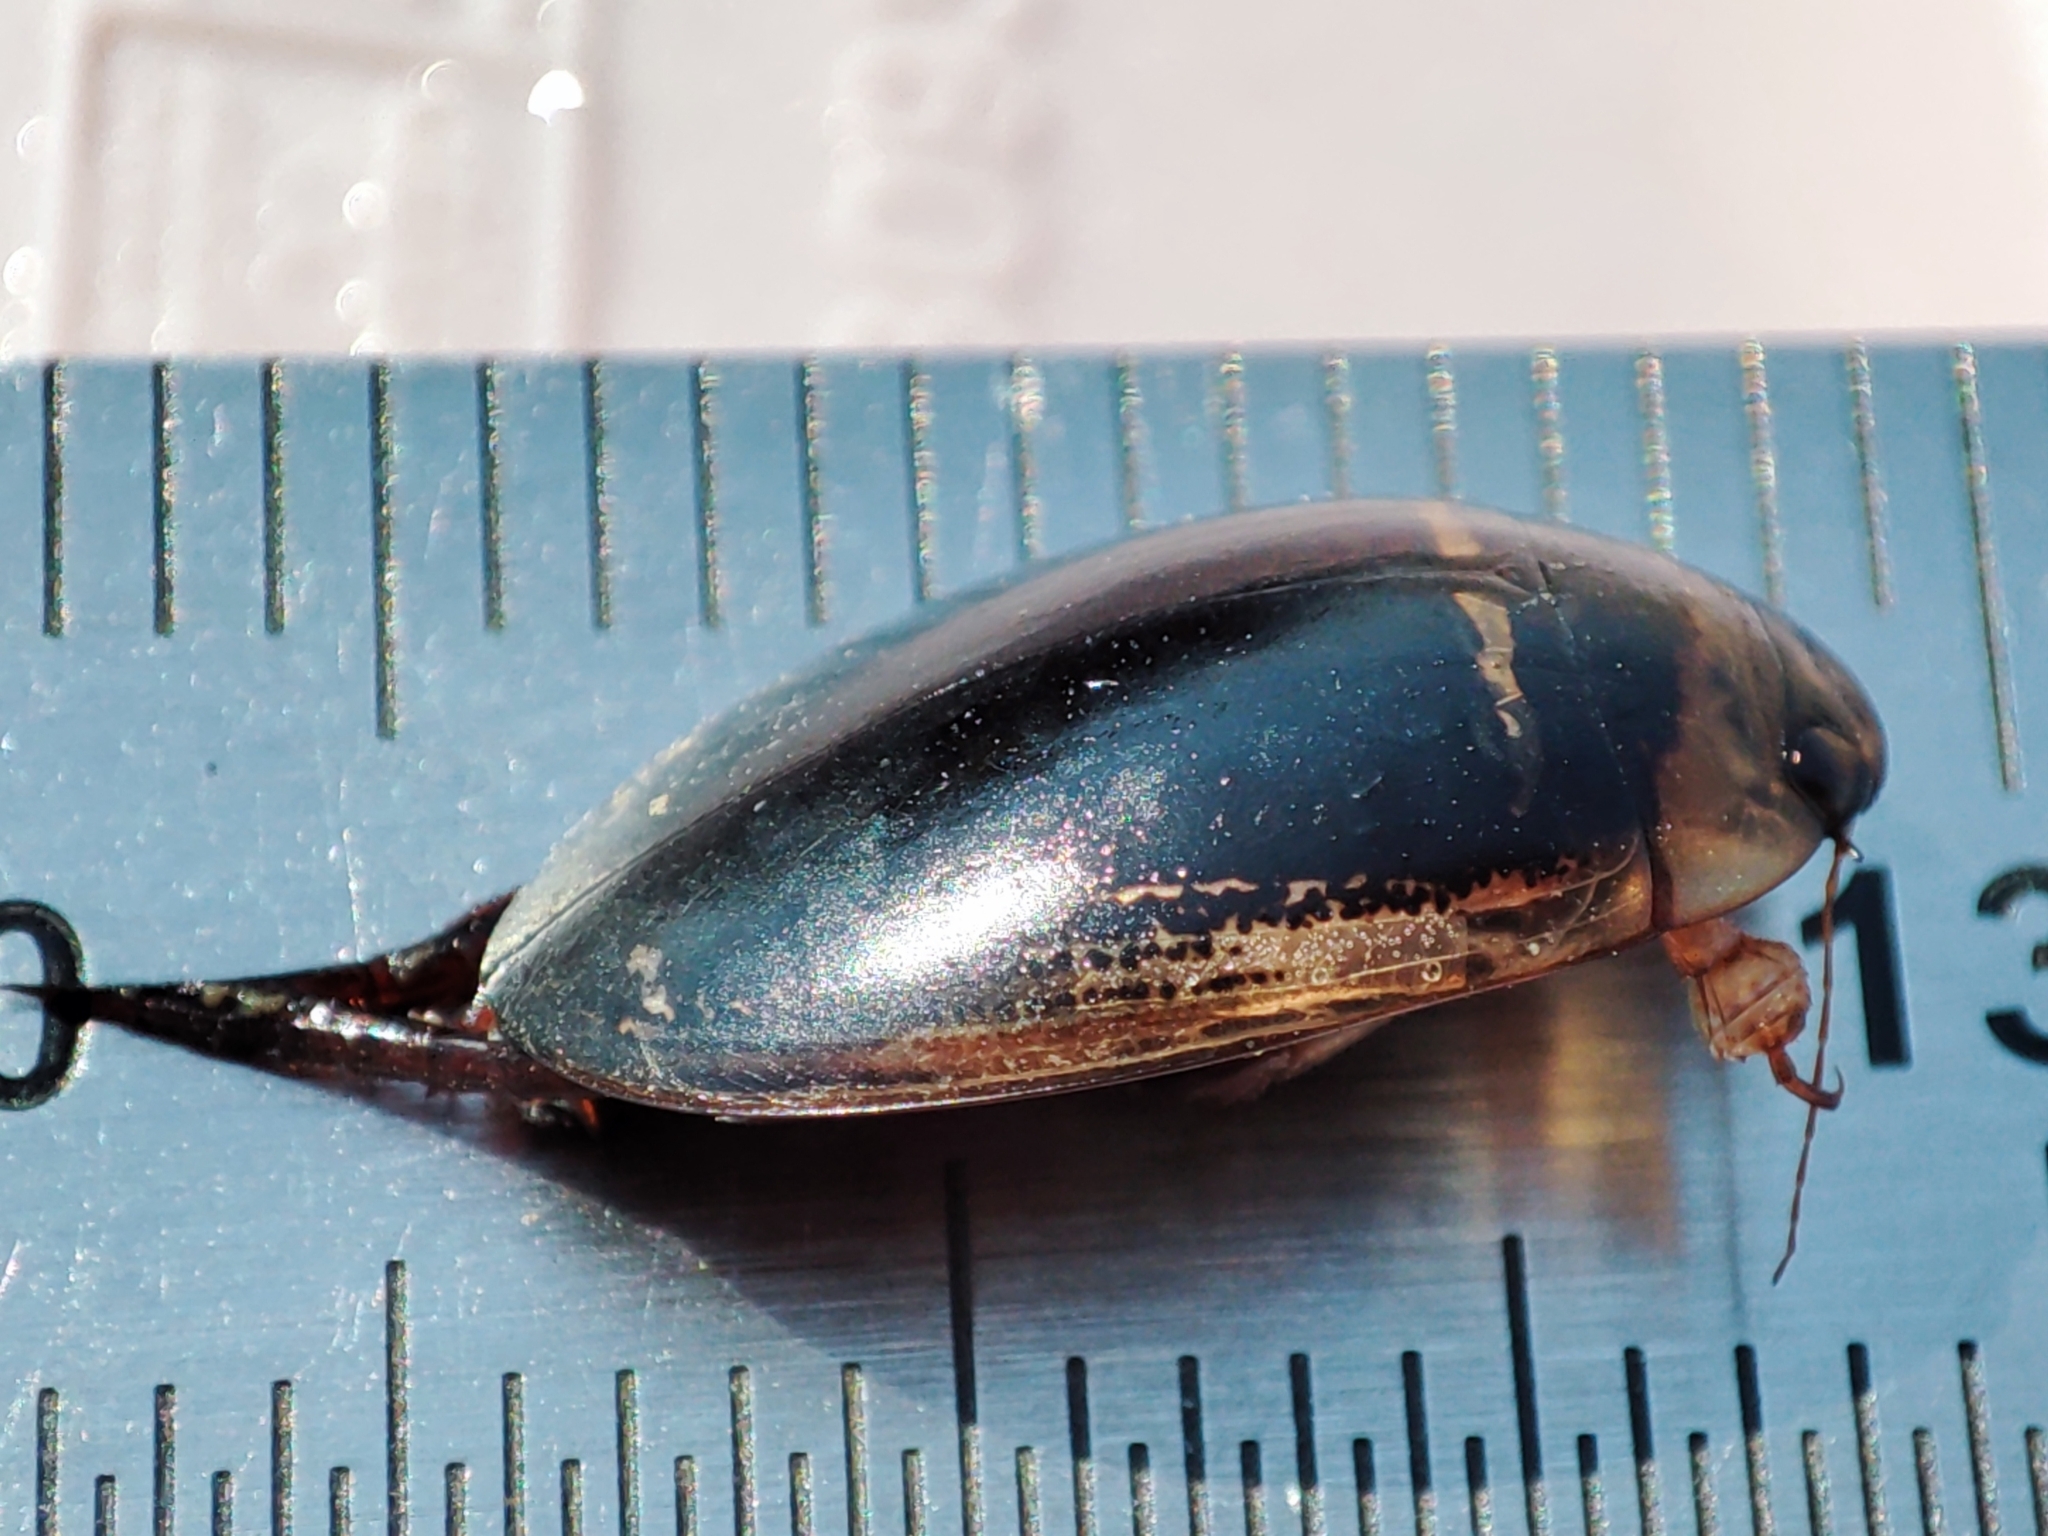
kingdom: Animalia
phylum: Arthropoda
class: Insecta
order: Coleoptera
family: Dytiscidae
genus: Hydaticus
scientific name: Hydaticus transversalis
